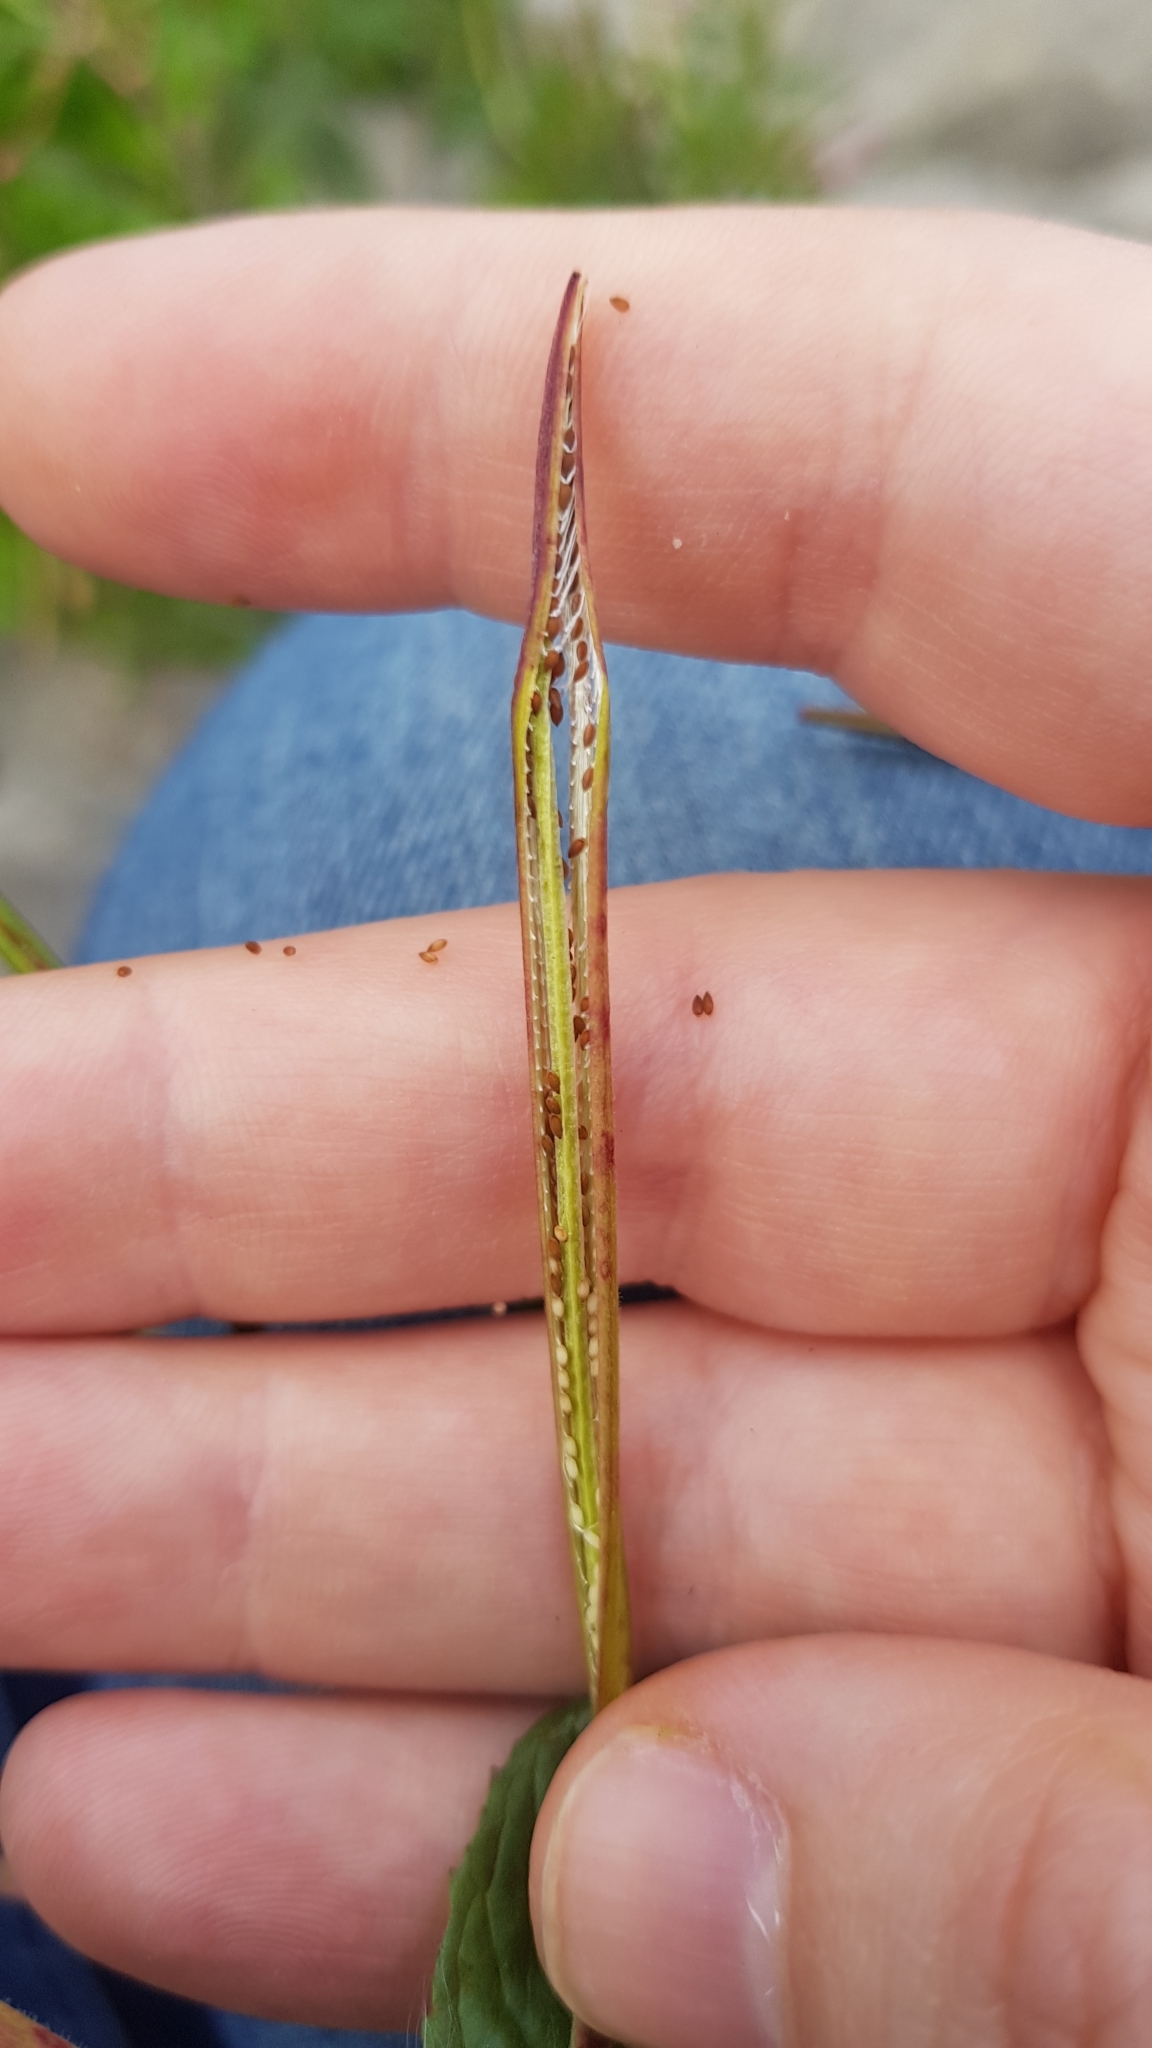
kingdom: Plantae
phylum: Tracheophyta
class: Magnoliopsida
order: Myrtales
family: Onagraceae
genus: Epilobium
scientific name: Epilobium ciliatum
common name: American willowherb
